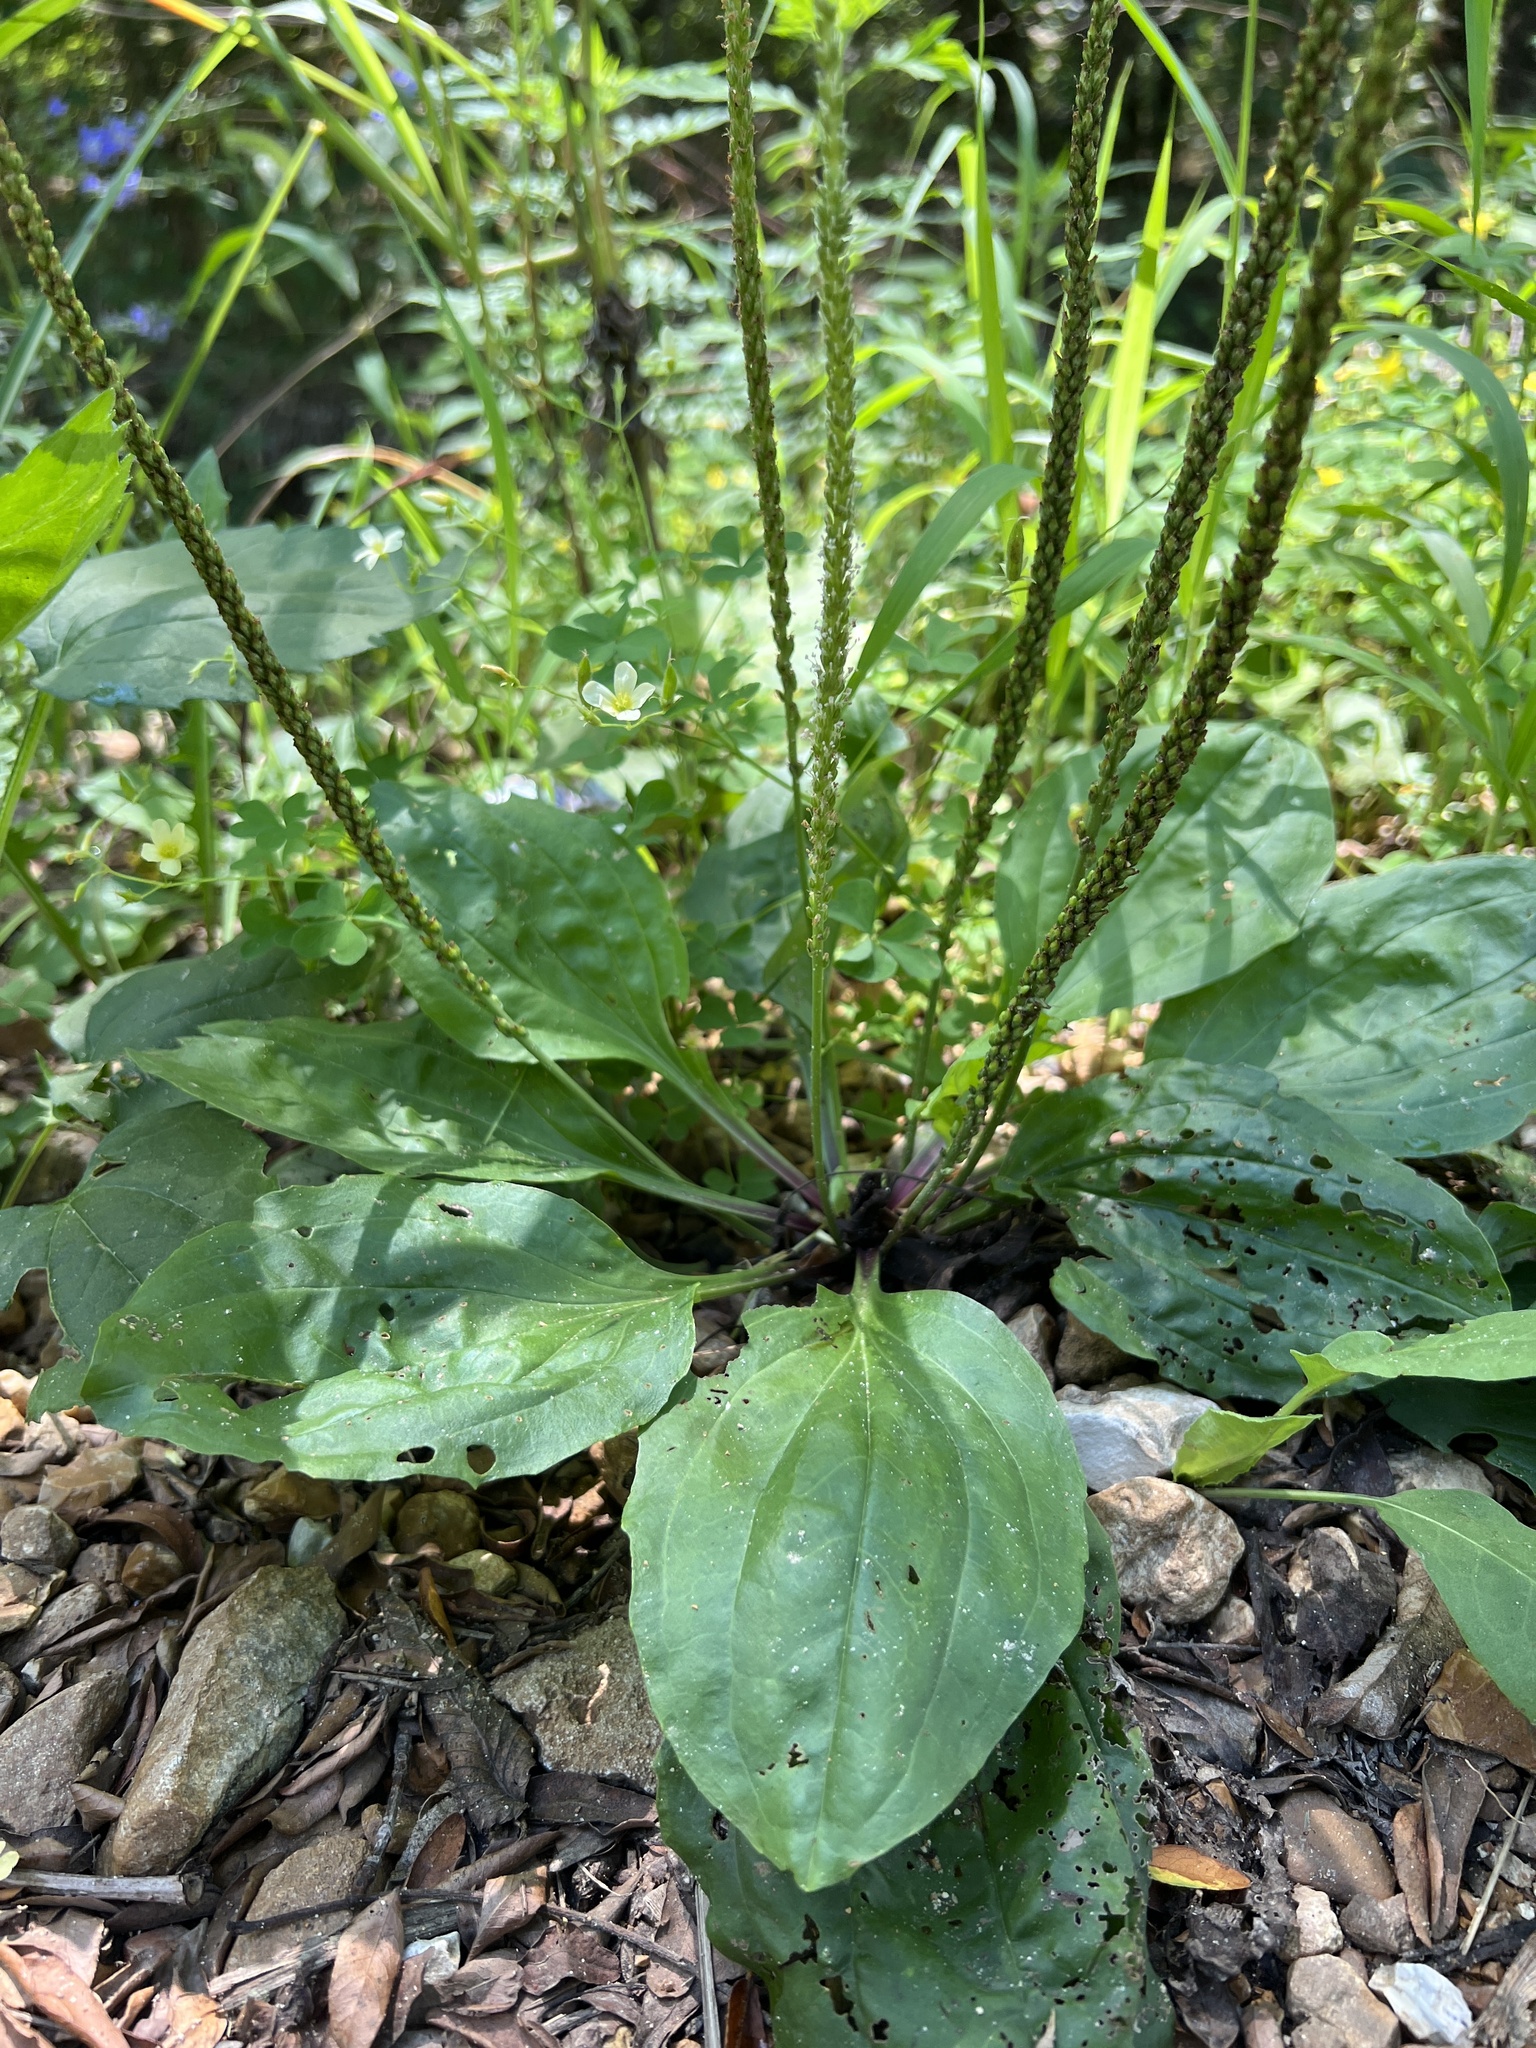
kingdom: Plantae
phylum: Tracheophyta
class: Magnoliopsida
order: Lamiales
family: Plantaginaceae
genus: Plantago
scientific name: Plantago rugelii
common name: American plantain
